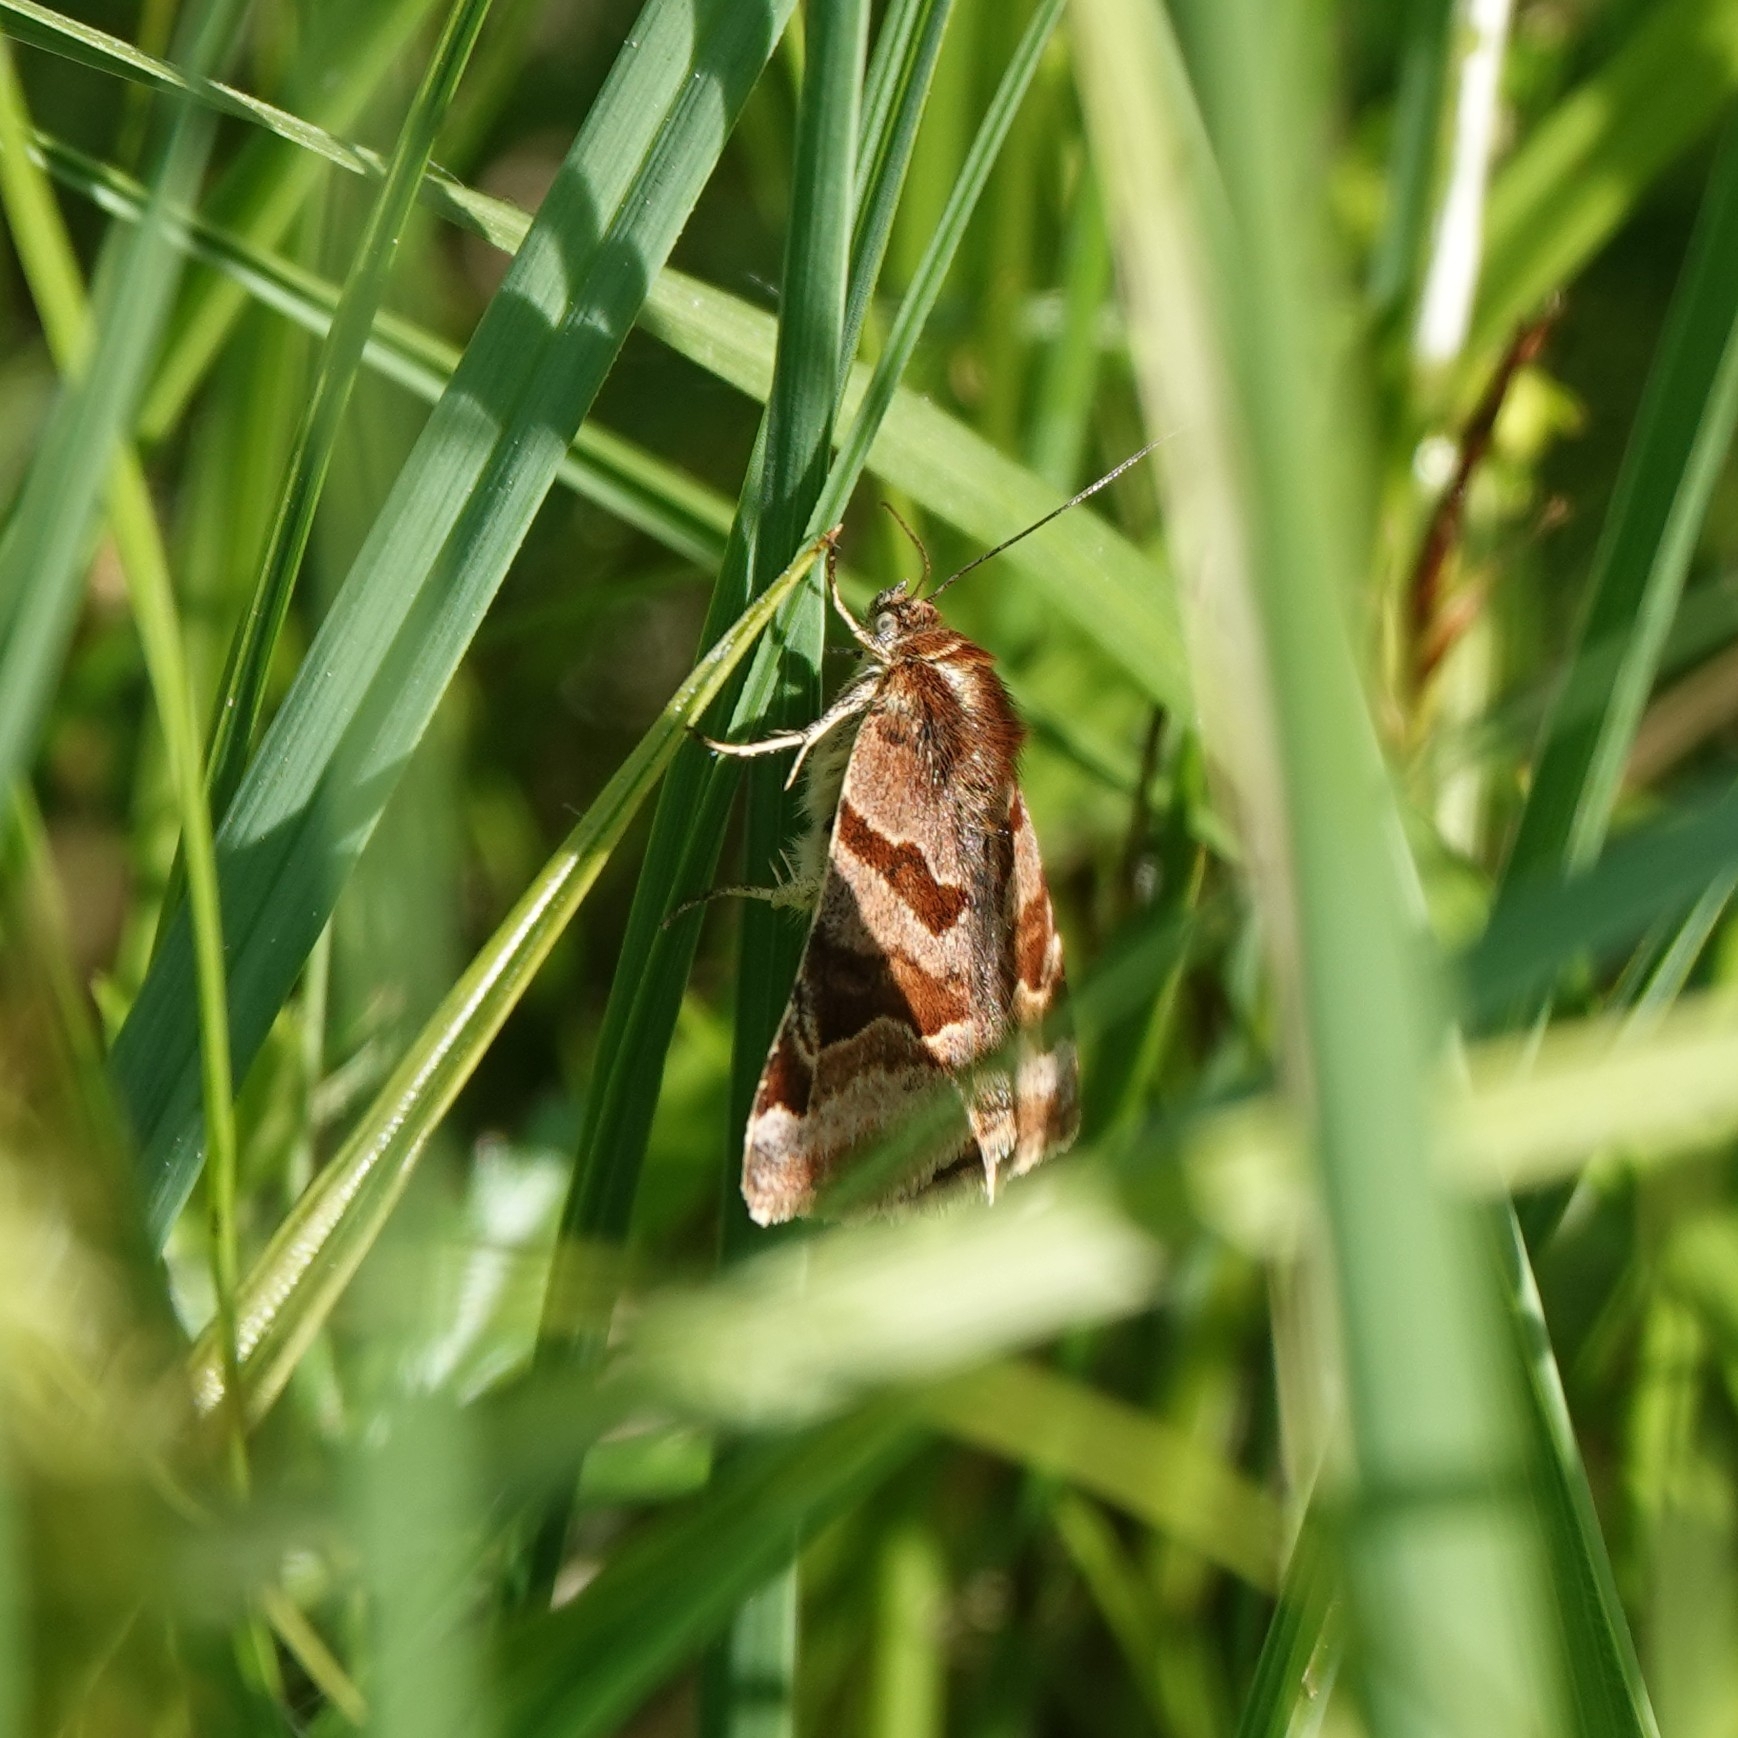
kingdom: Animalia
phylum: Arthropoda
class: Insecta
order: Lepidoptera
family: Erebidae
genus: Euclidia
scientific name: Euclidia glyphica
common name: Burnet companion
